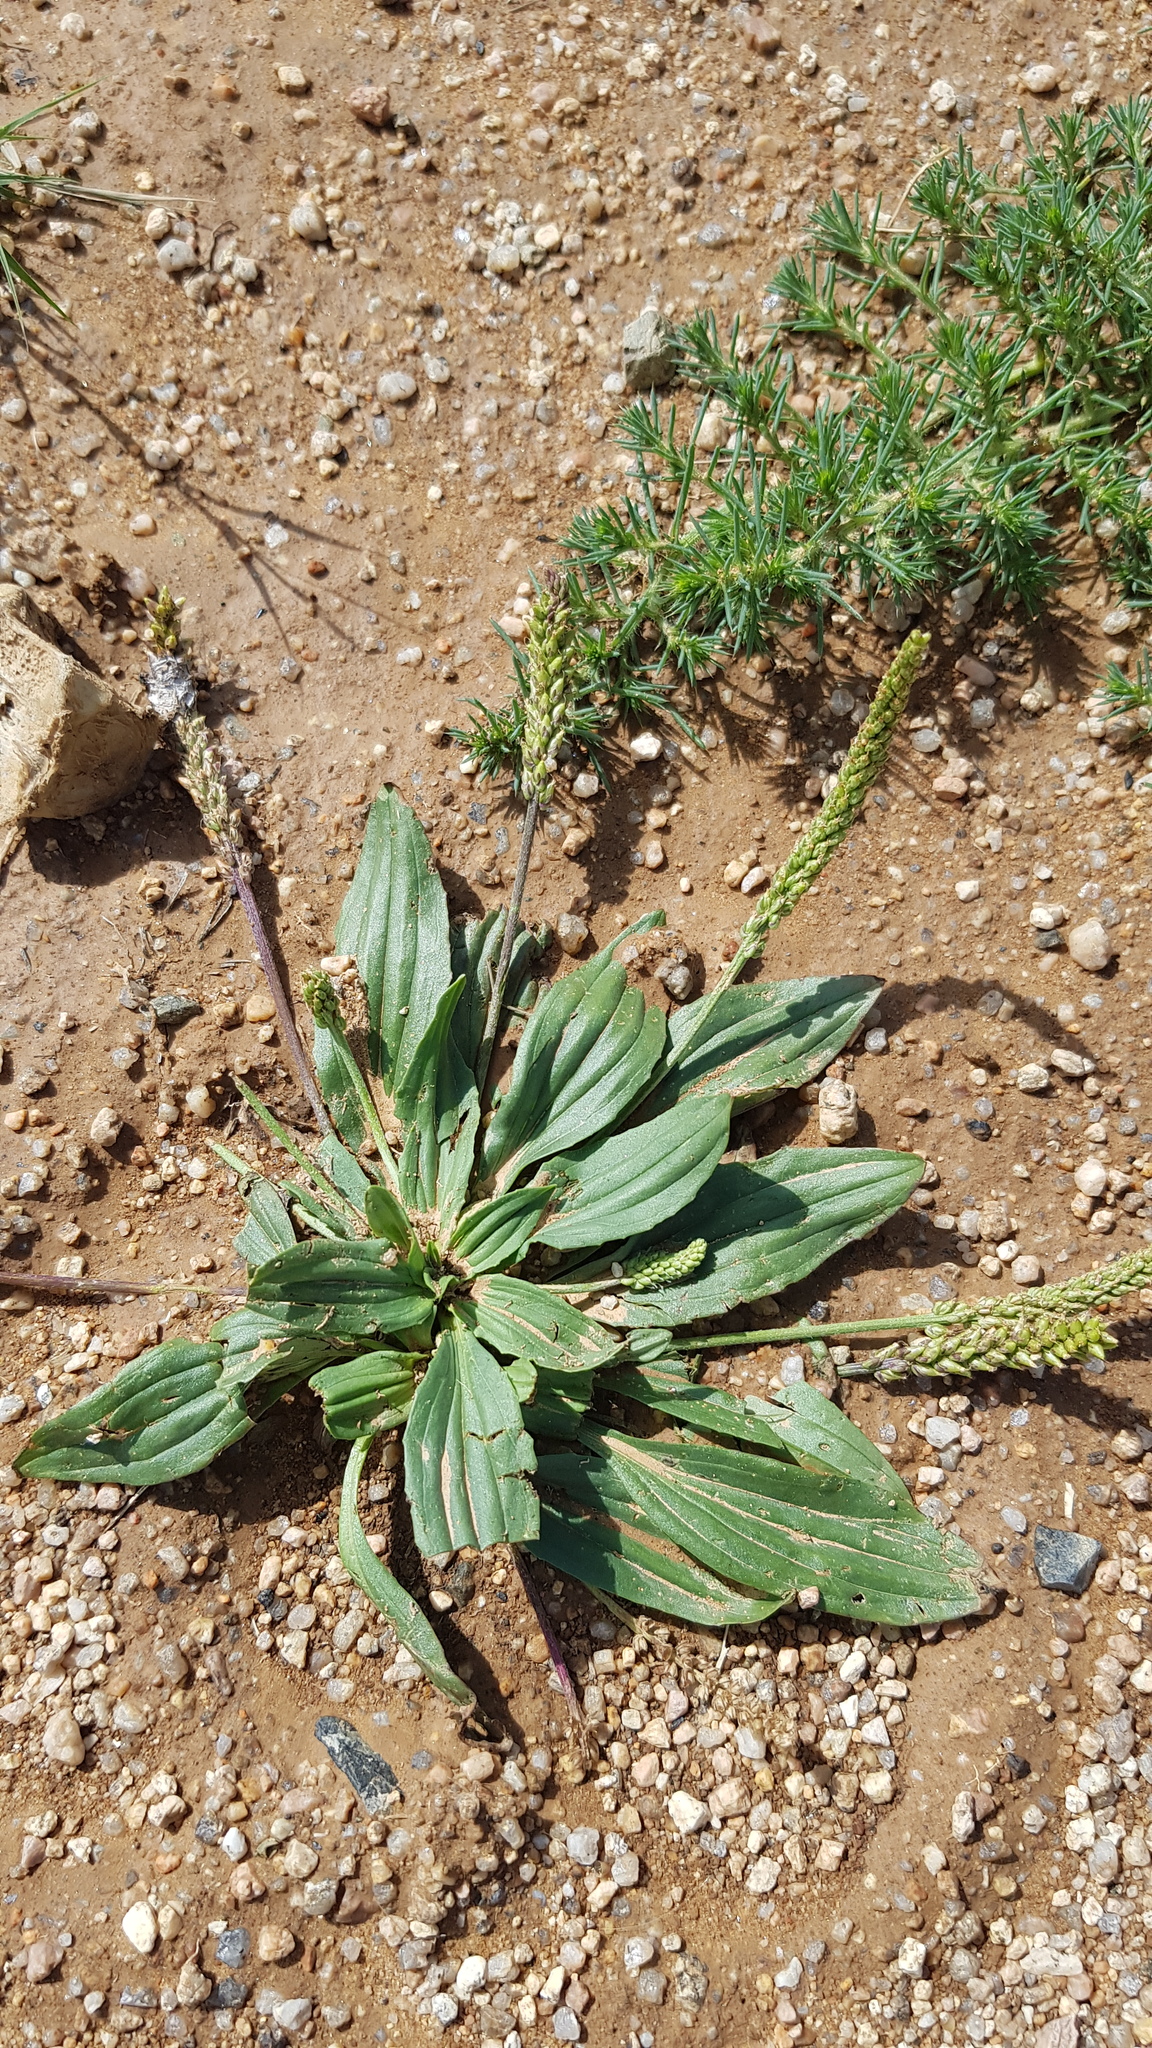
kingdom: Plantae
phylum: Tracheophyta
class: Magnoliopsida
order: Lamiales
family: Plantaginaceae
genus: Plantago
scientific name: Plantago depressa
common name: Depressed plantain
